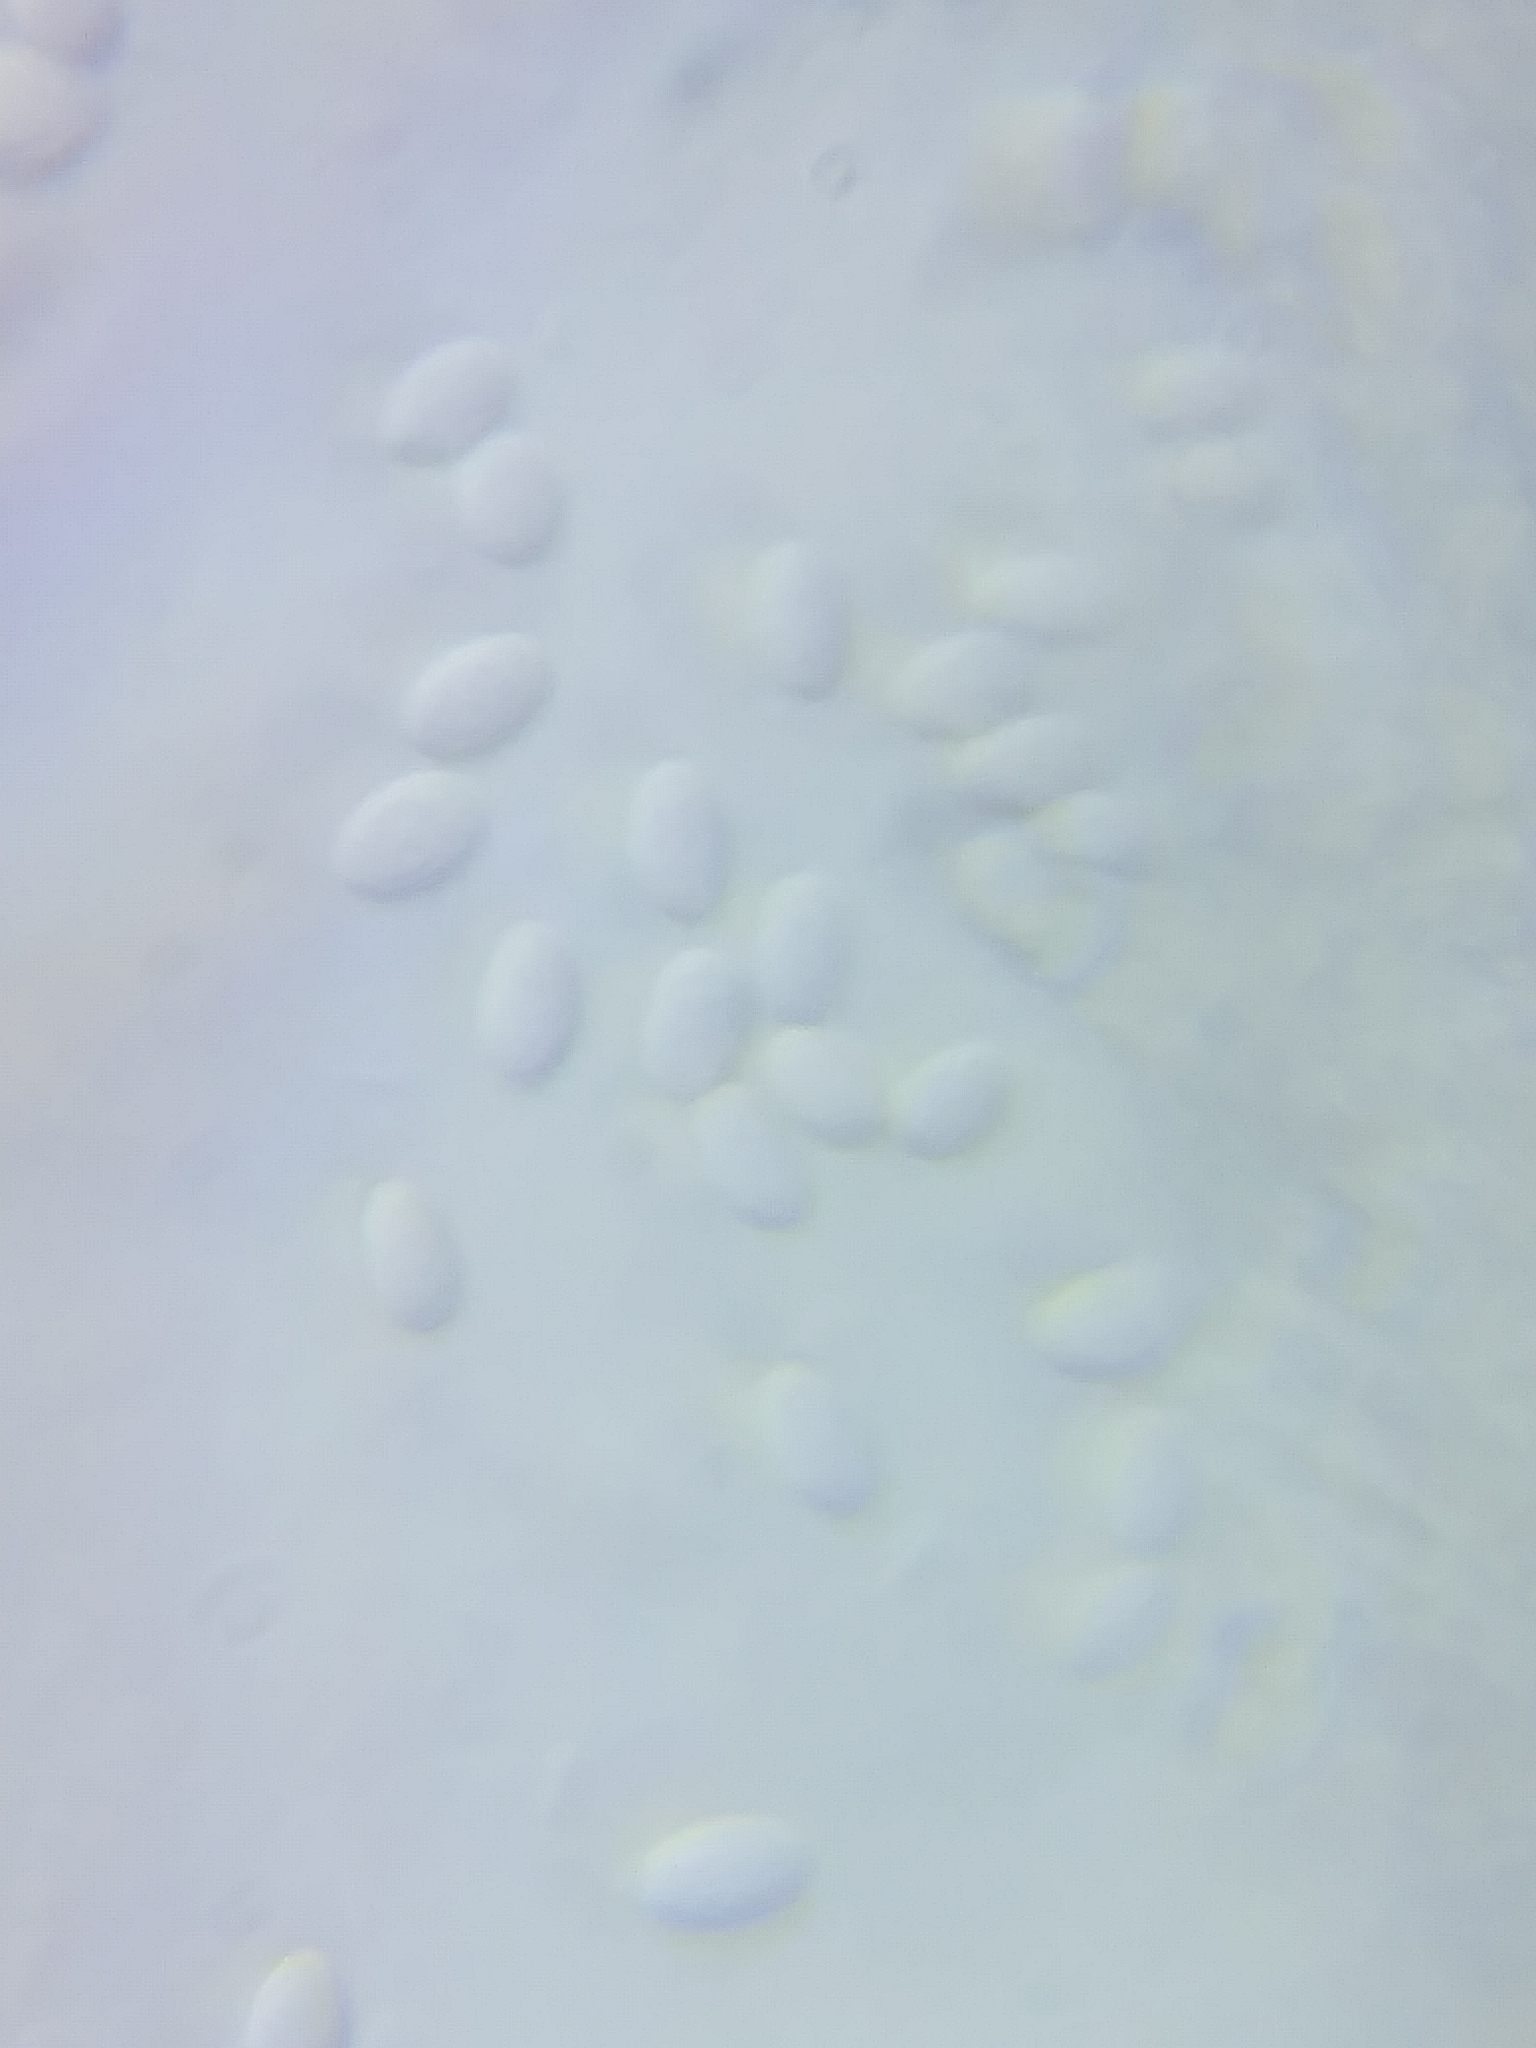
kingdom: Fungi
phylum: Basidiomycota
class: Agaricomycetes
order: Polyporales
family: Incrustoporiaceae
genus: Tyromyces
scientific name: Tyromyces galactinus
